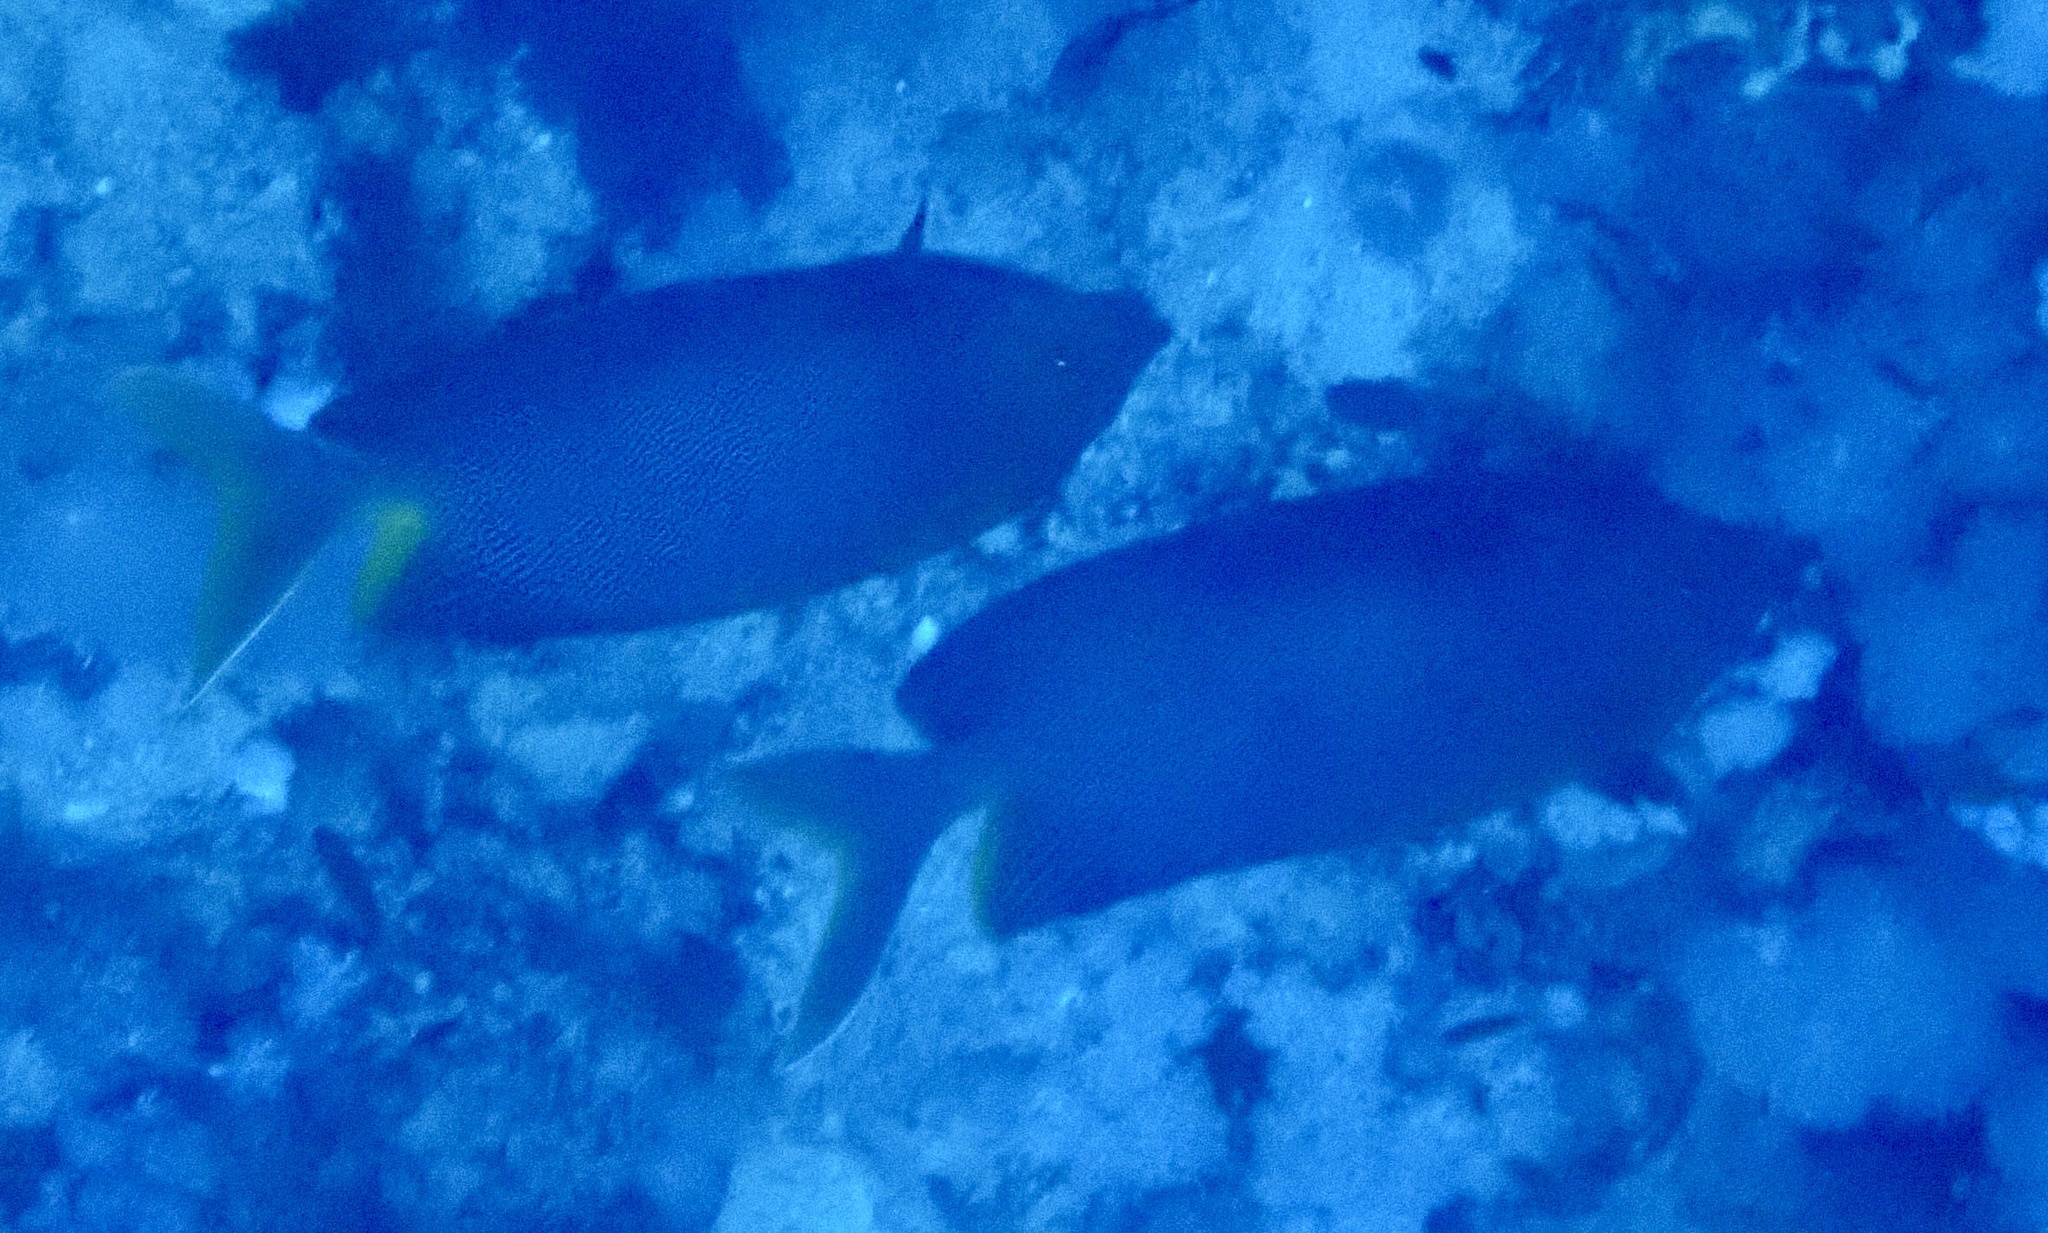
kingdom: Animalia
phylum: Chordata
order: Perciformes
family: Siganidae
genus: Siganus
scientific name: Siganus stellatus
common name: Brown-spotted spinefoot
